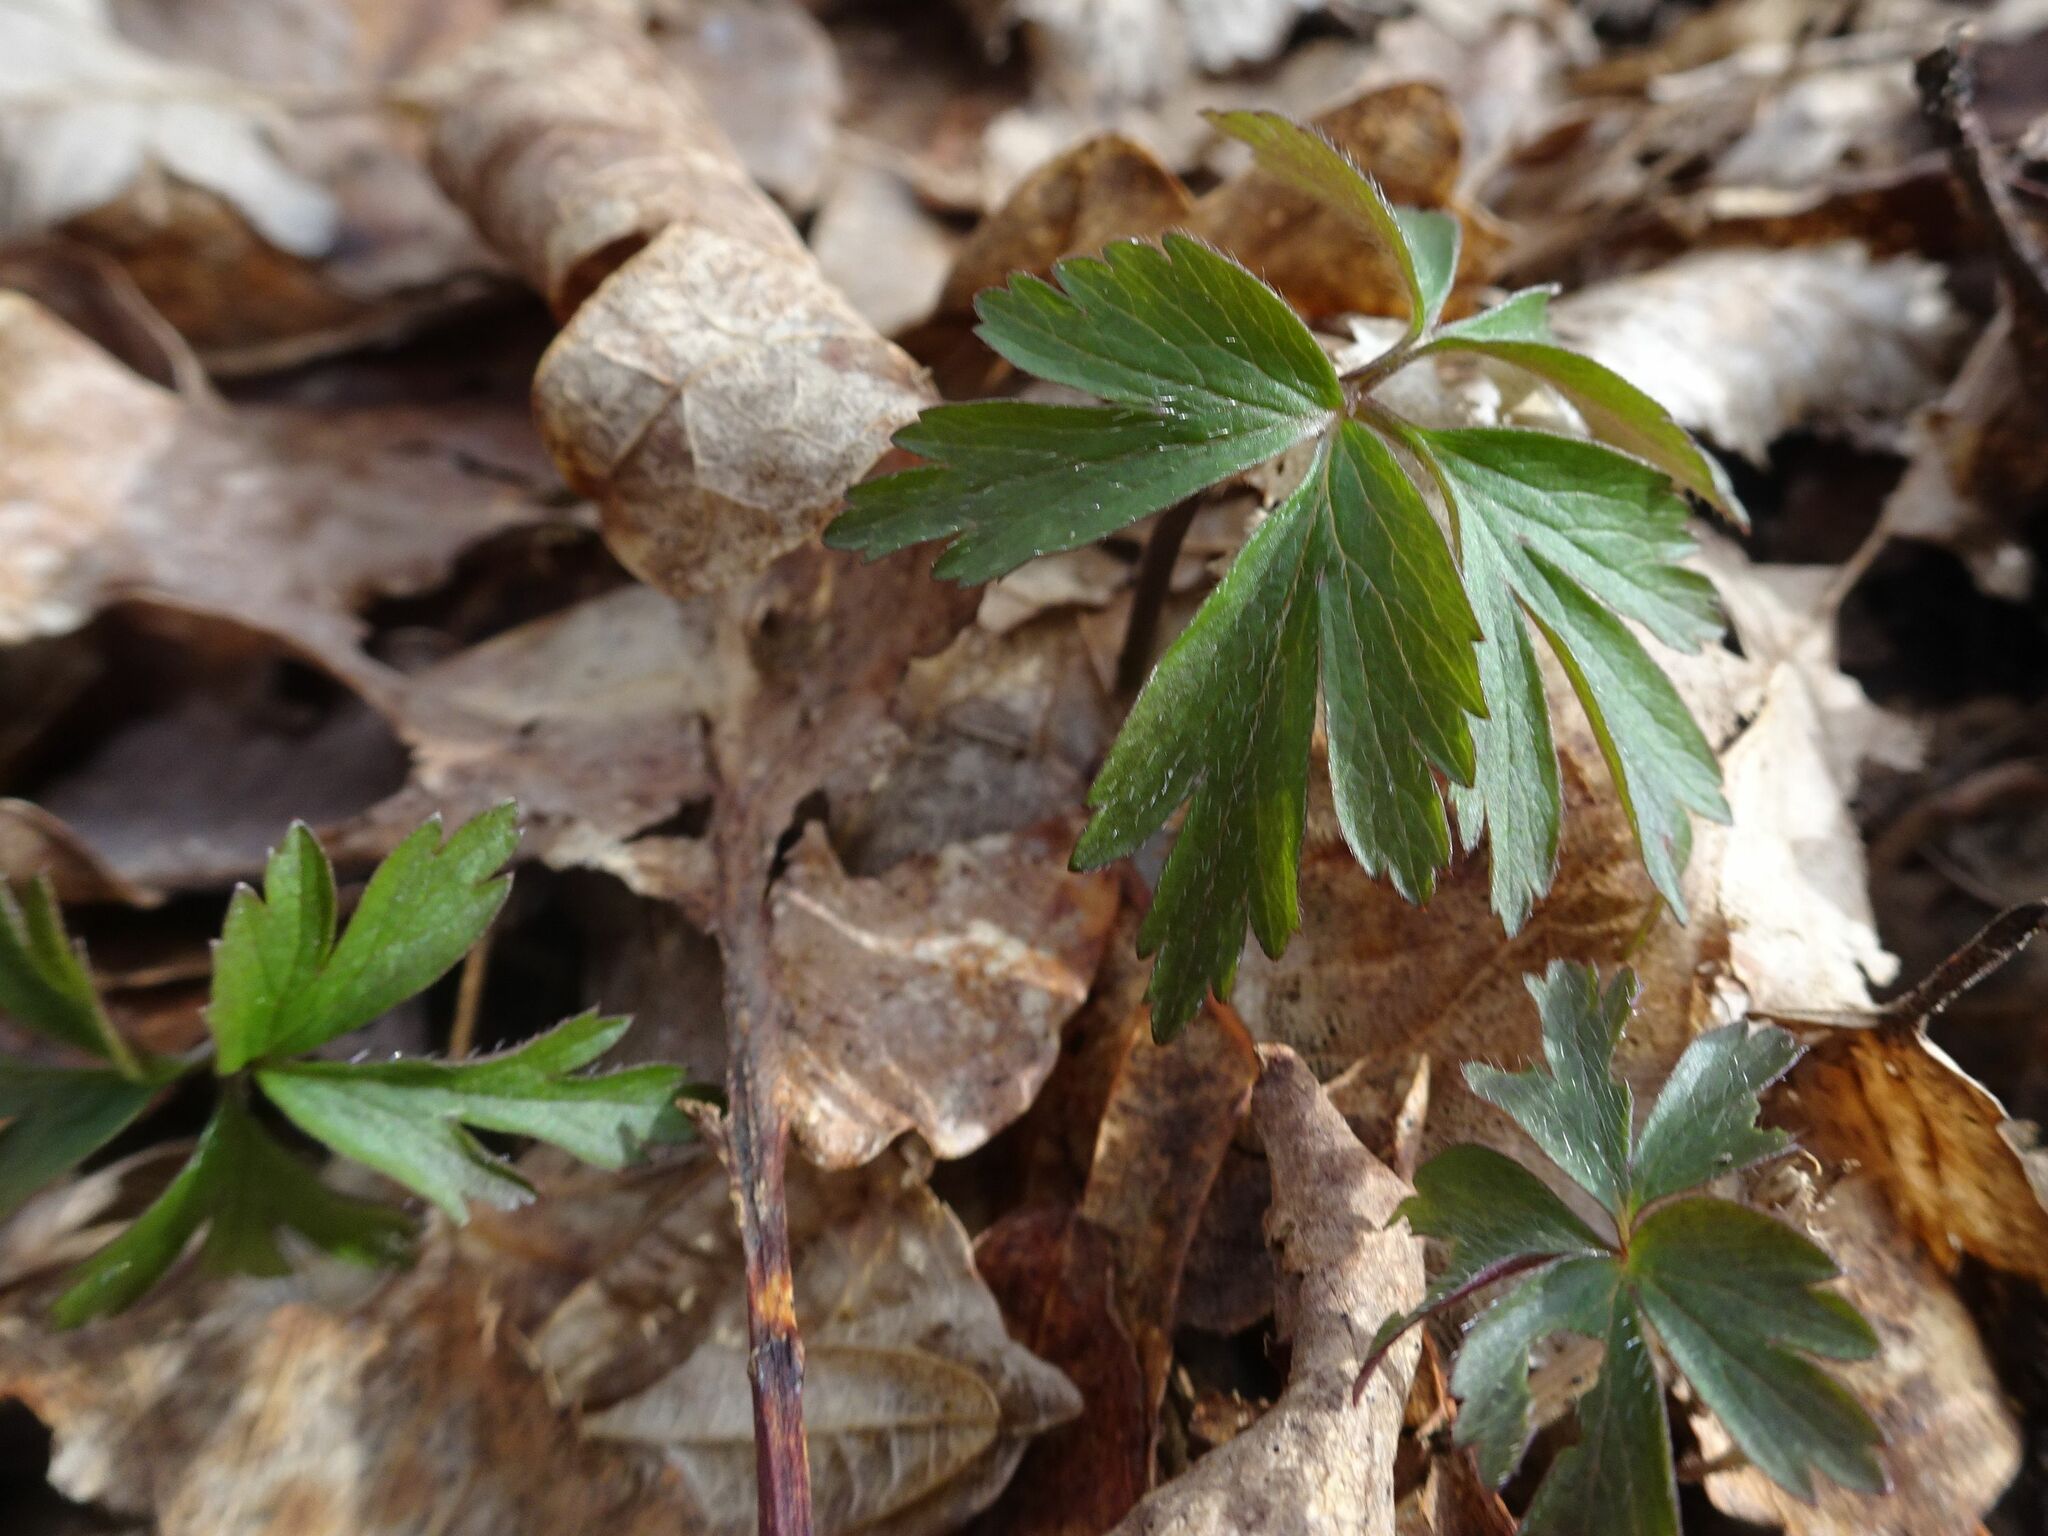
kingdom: Plantae
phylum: Tracheophyta
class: Magnoliopsida
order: Ranunculales
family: Ranunculaceae
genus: Anemone
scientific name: Anemone nemorosa
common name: Wood anemone
